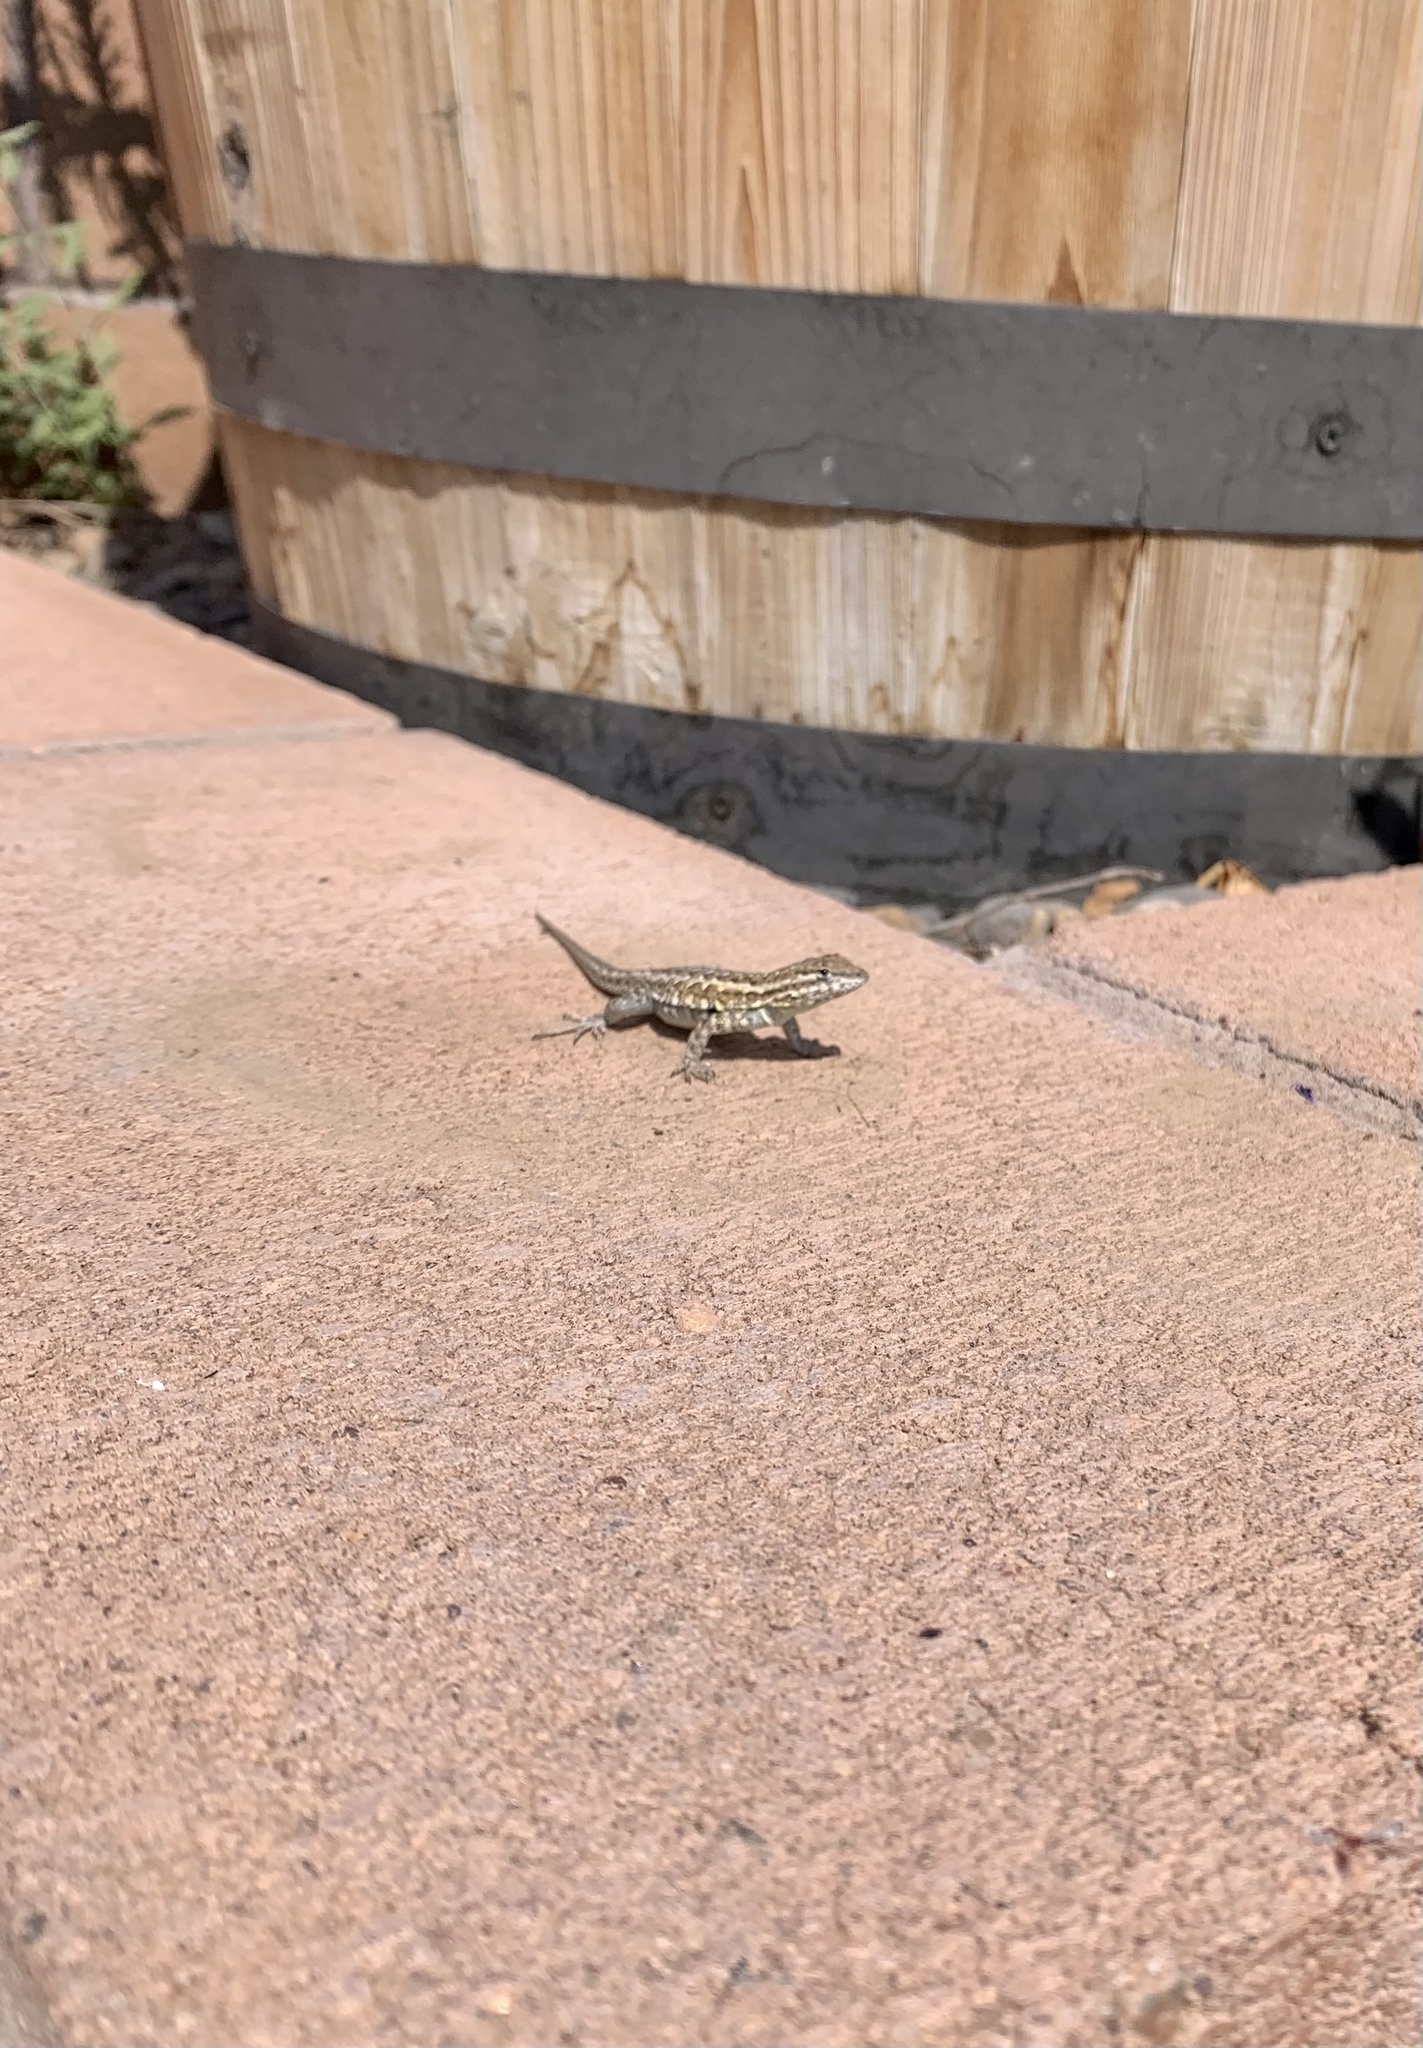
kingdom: Animalia
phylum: Chordata
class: Squamata
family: Phrynosomatidae
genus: Uta
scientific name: Uta stansburiana
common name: Side-blotched lizard
